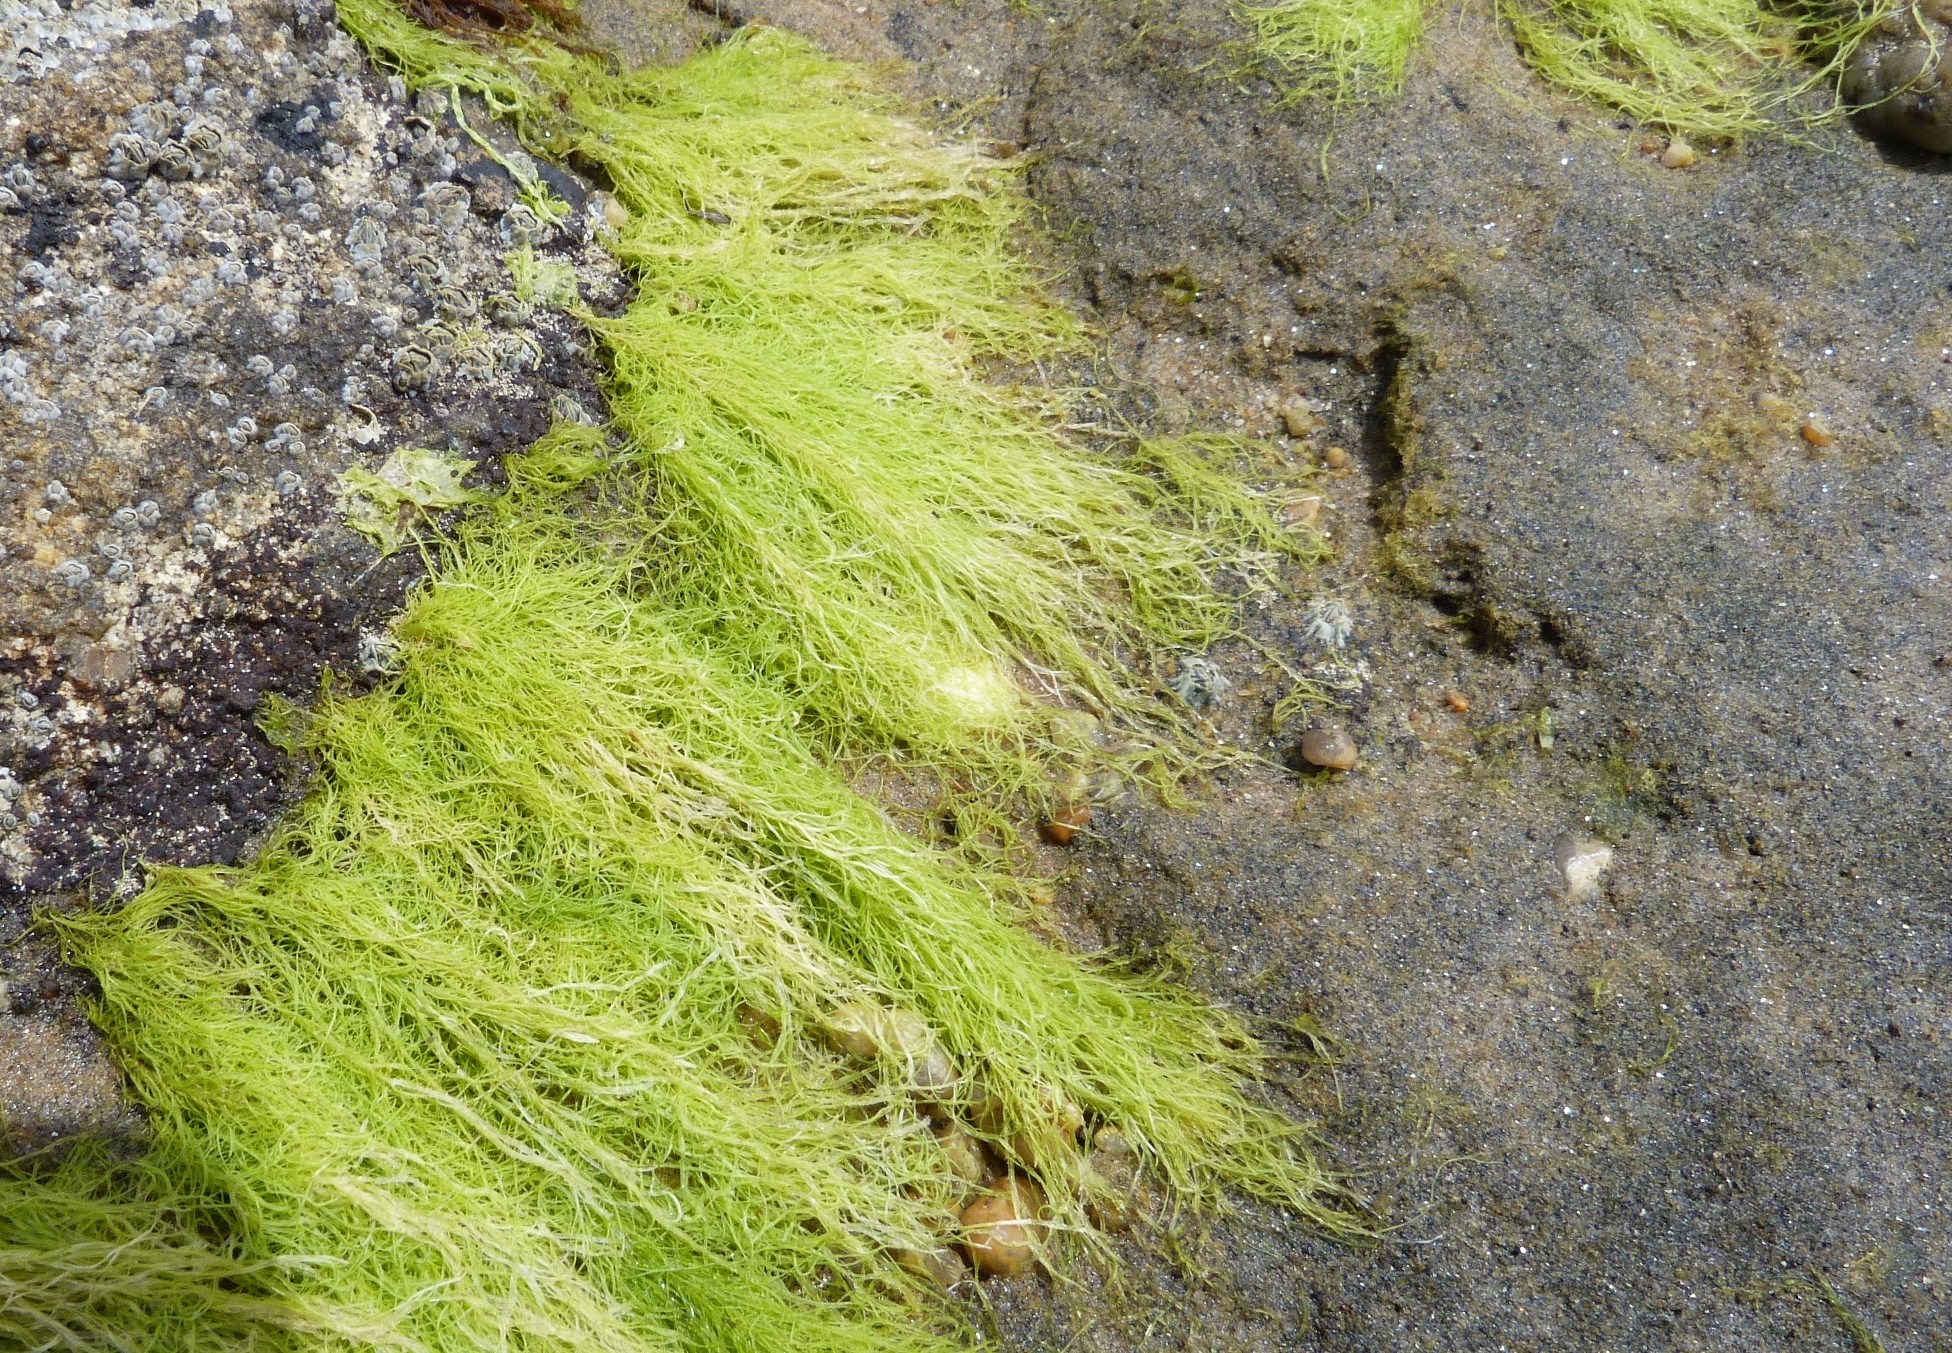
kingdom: Plantae
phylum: Chlorophyta
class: Ulvophyceae
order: Ulvales
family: Ulvaceae
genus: Ulva
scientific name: Ulva intestinalis
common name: Gut weed
